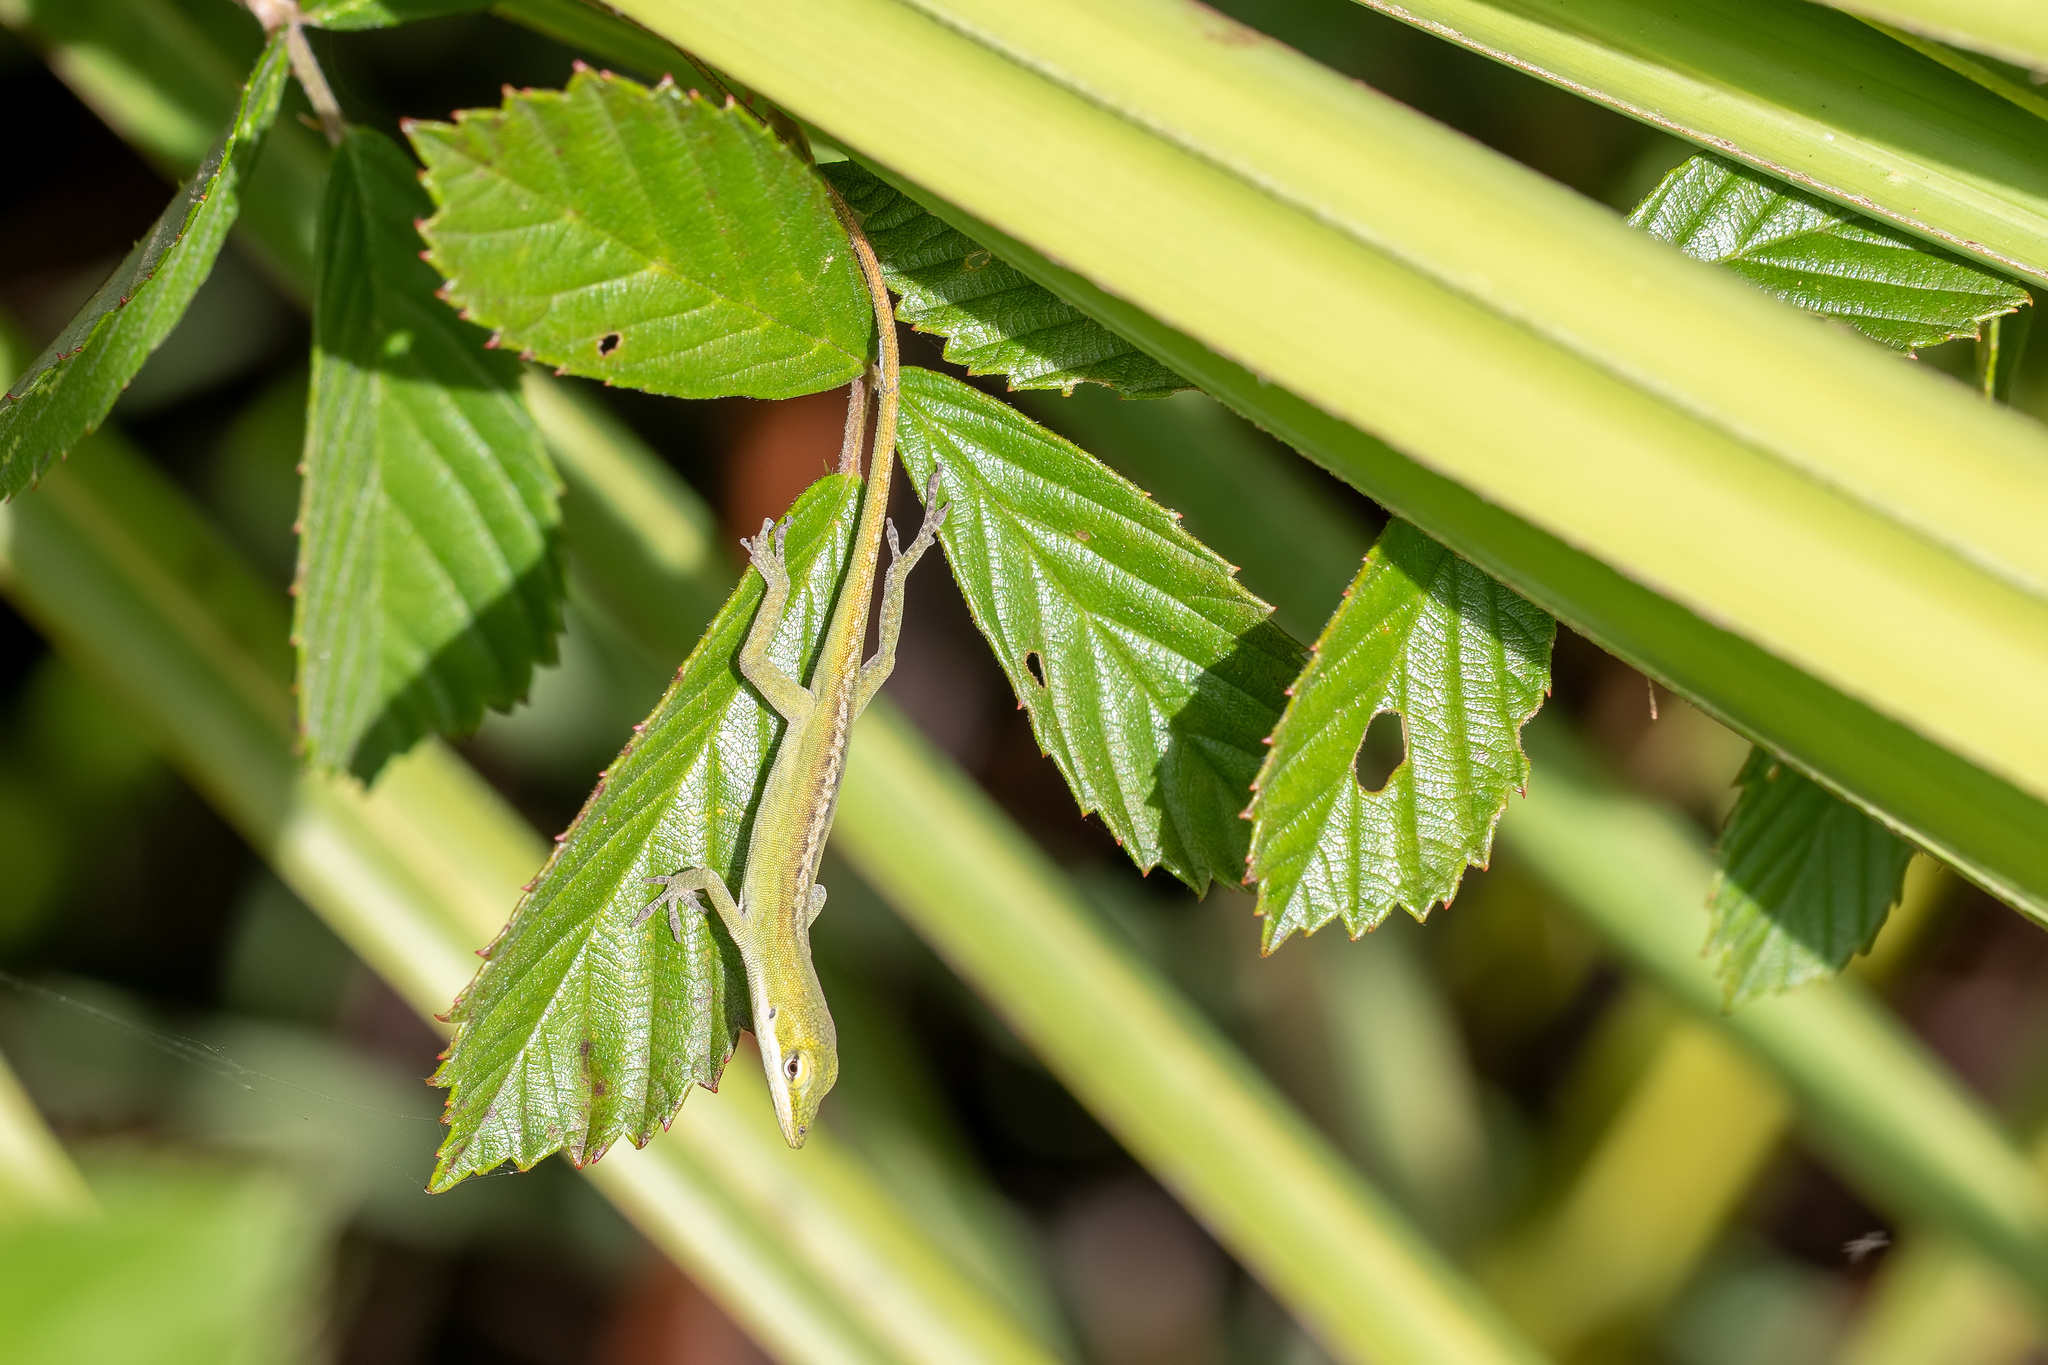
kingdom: Animalia
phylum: Chordata
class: Squamata
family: Dactyloidae
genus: Anolis
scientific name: Anolis carolinensis
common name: Green anole
